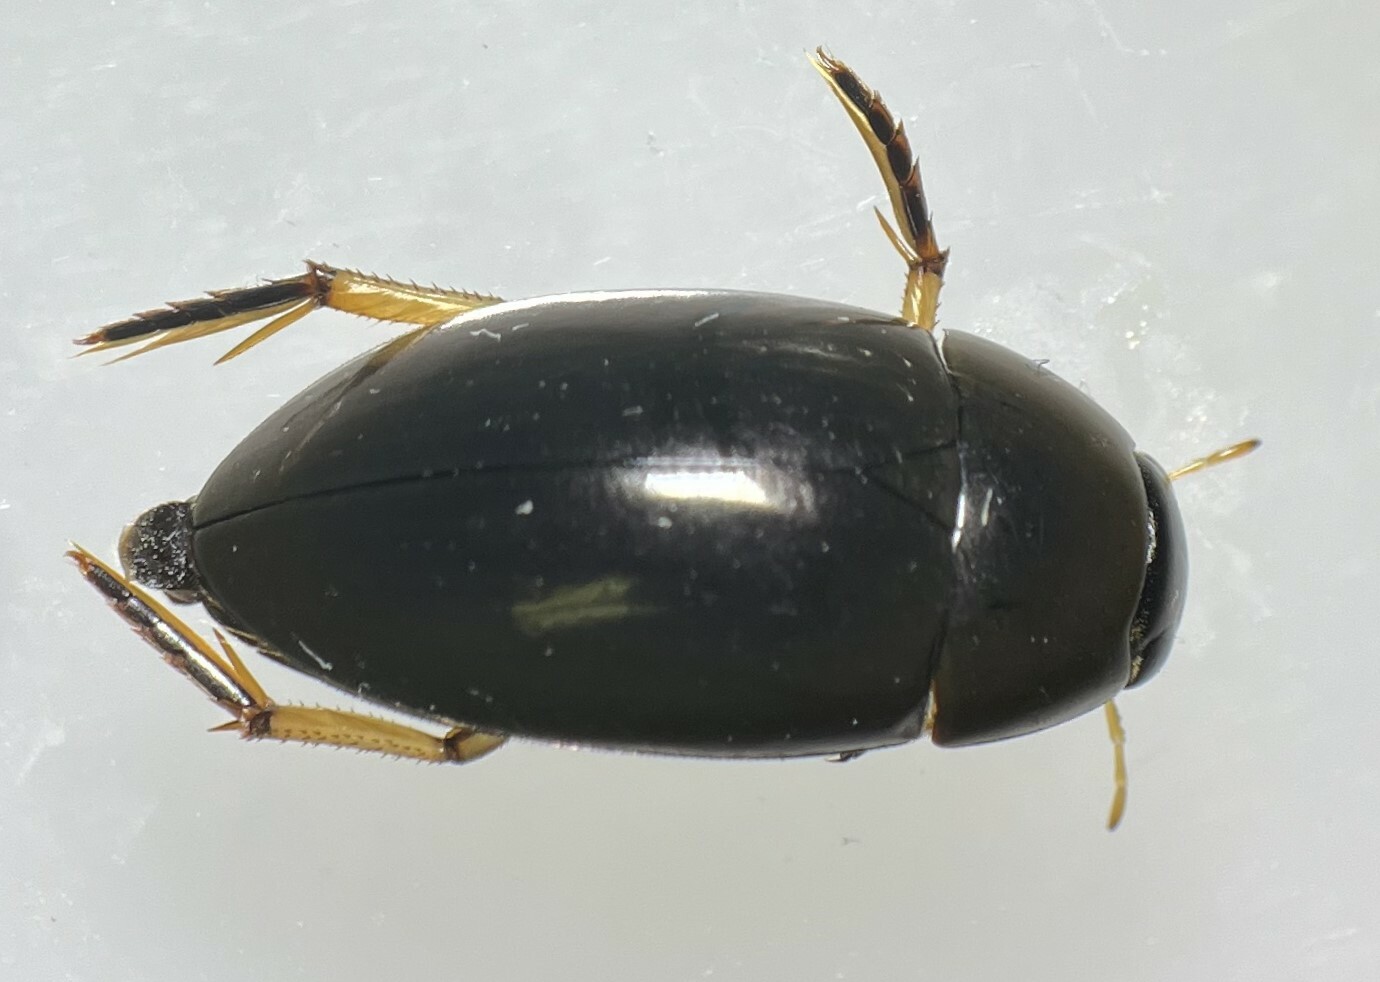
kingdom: Animalia
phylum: Arthropoda
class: Insecta
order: Coleoptera
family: Hydrophilidae
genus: Tropisternus
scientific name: Tropisternus quadristriatus
